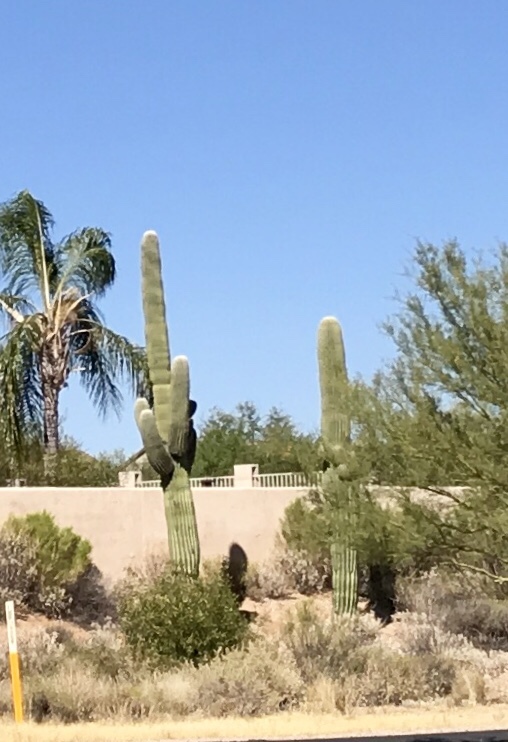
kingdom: Plantae
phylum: Tracheophyta
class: Magnoliopsida
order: Caryophyllales
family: Cactaceae
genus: Carnegiea
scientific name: Carnegiea gigantea
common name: Saguaro
